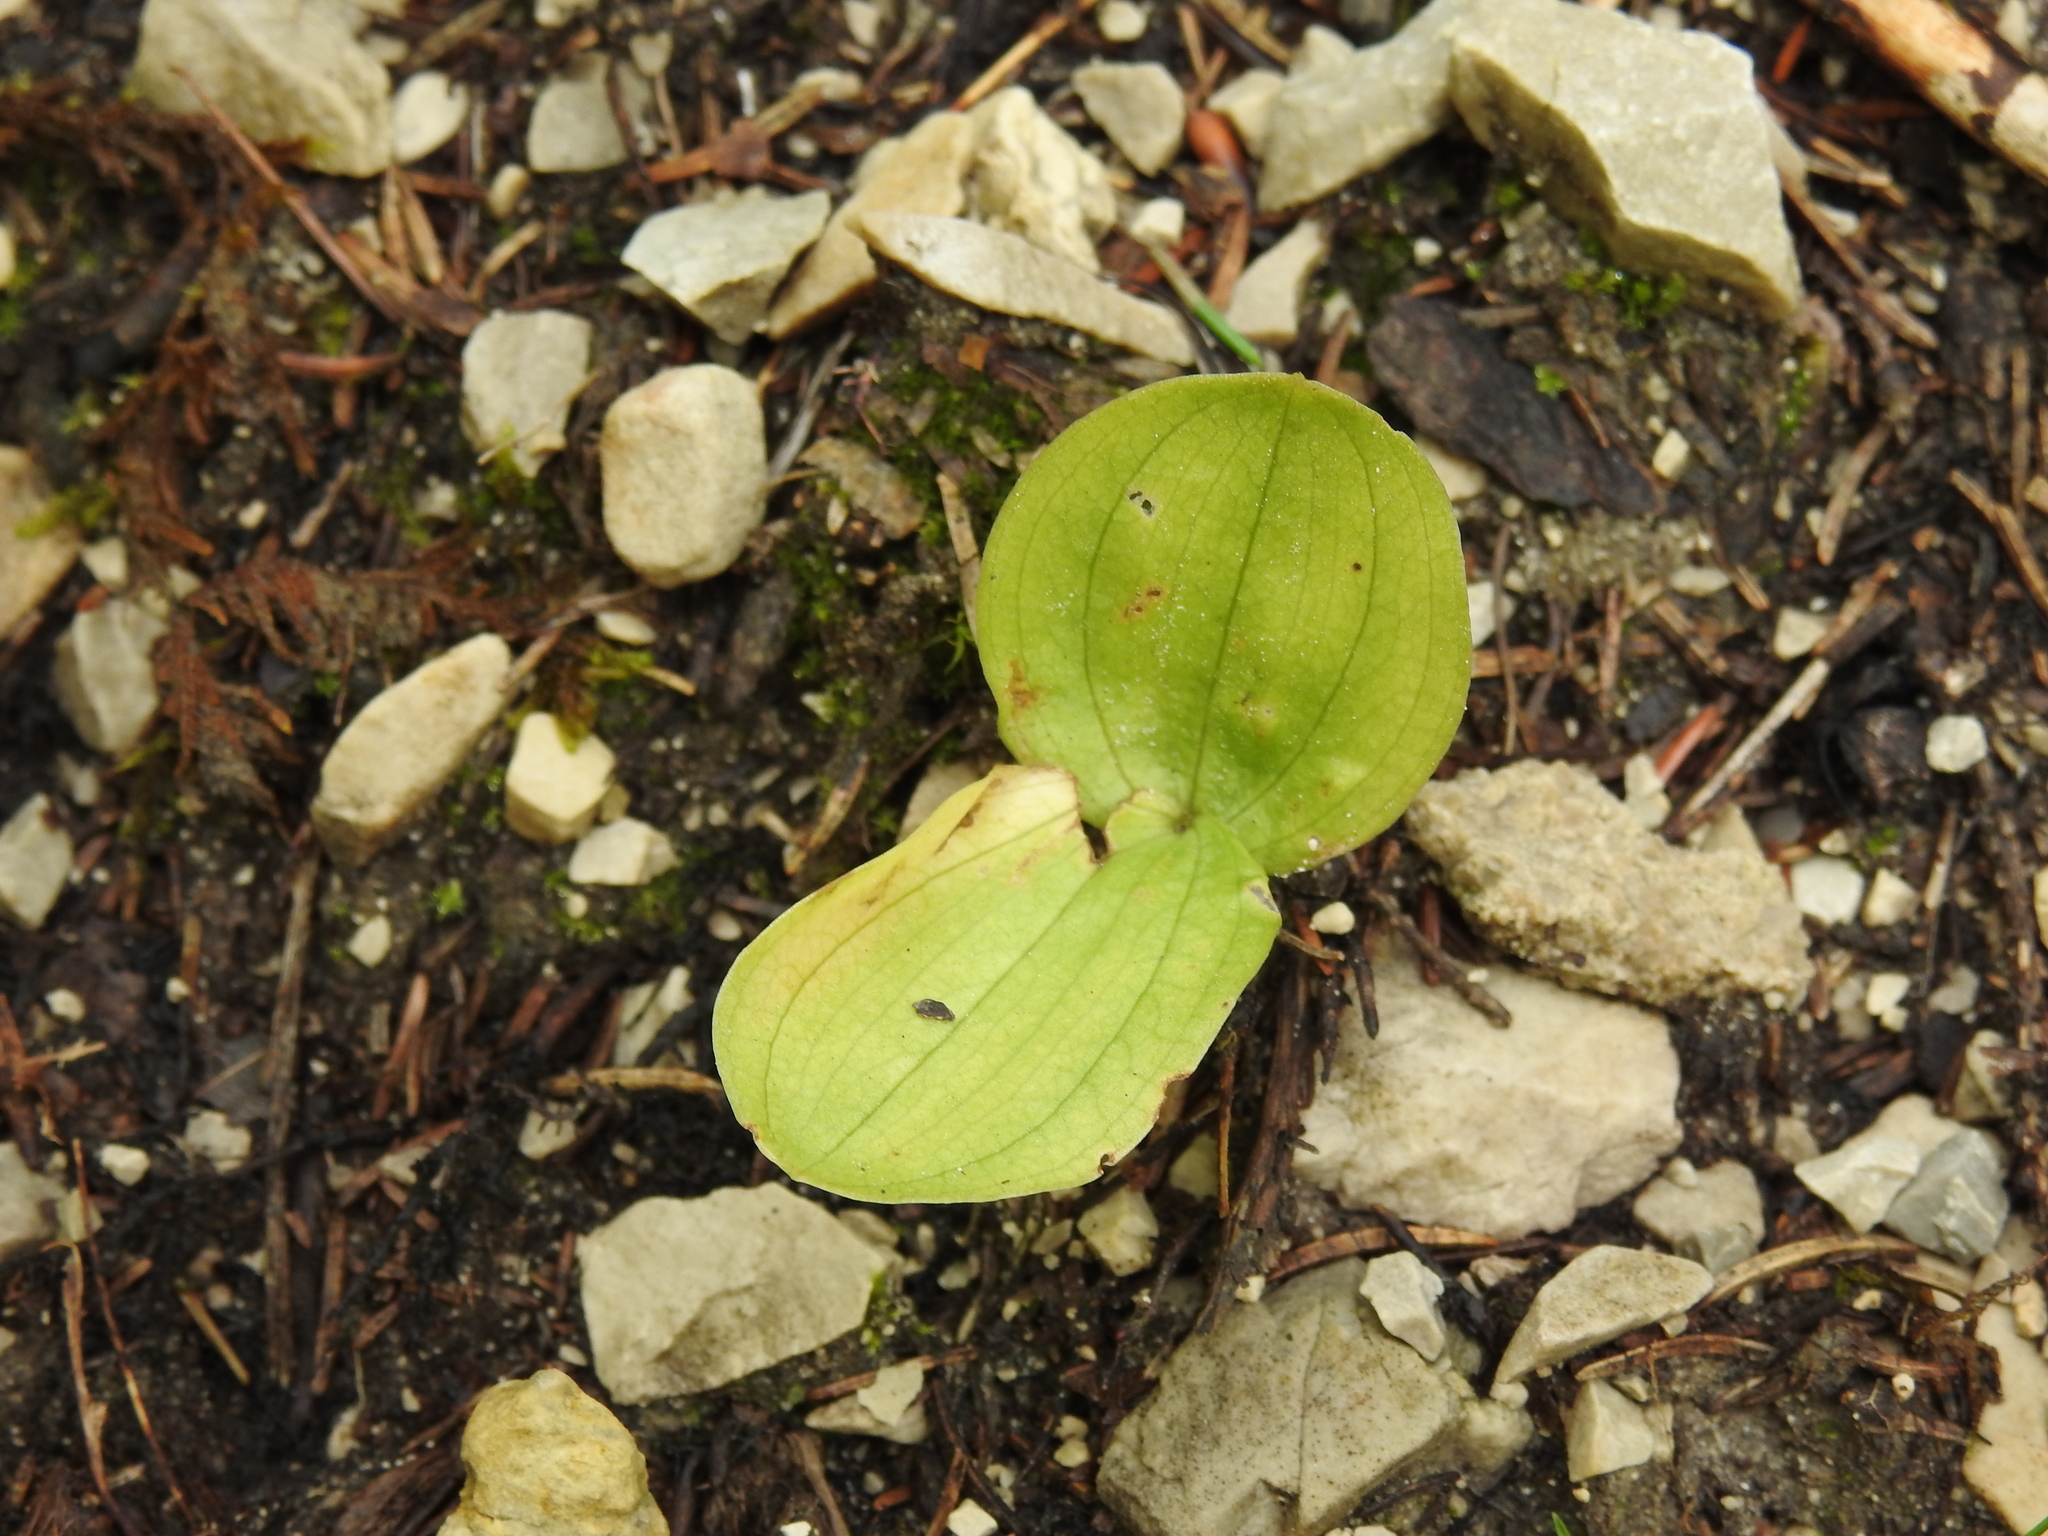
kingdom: Plantae
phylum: Tracheophyta
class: Liliopsida
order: Asparagales
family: Orchidaceae
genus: Neottia
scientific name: Neottia ovata
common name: Common twayblade
